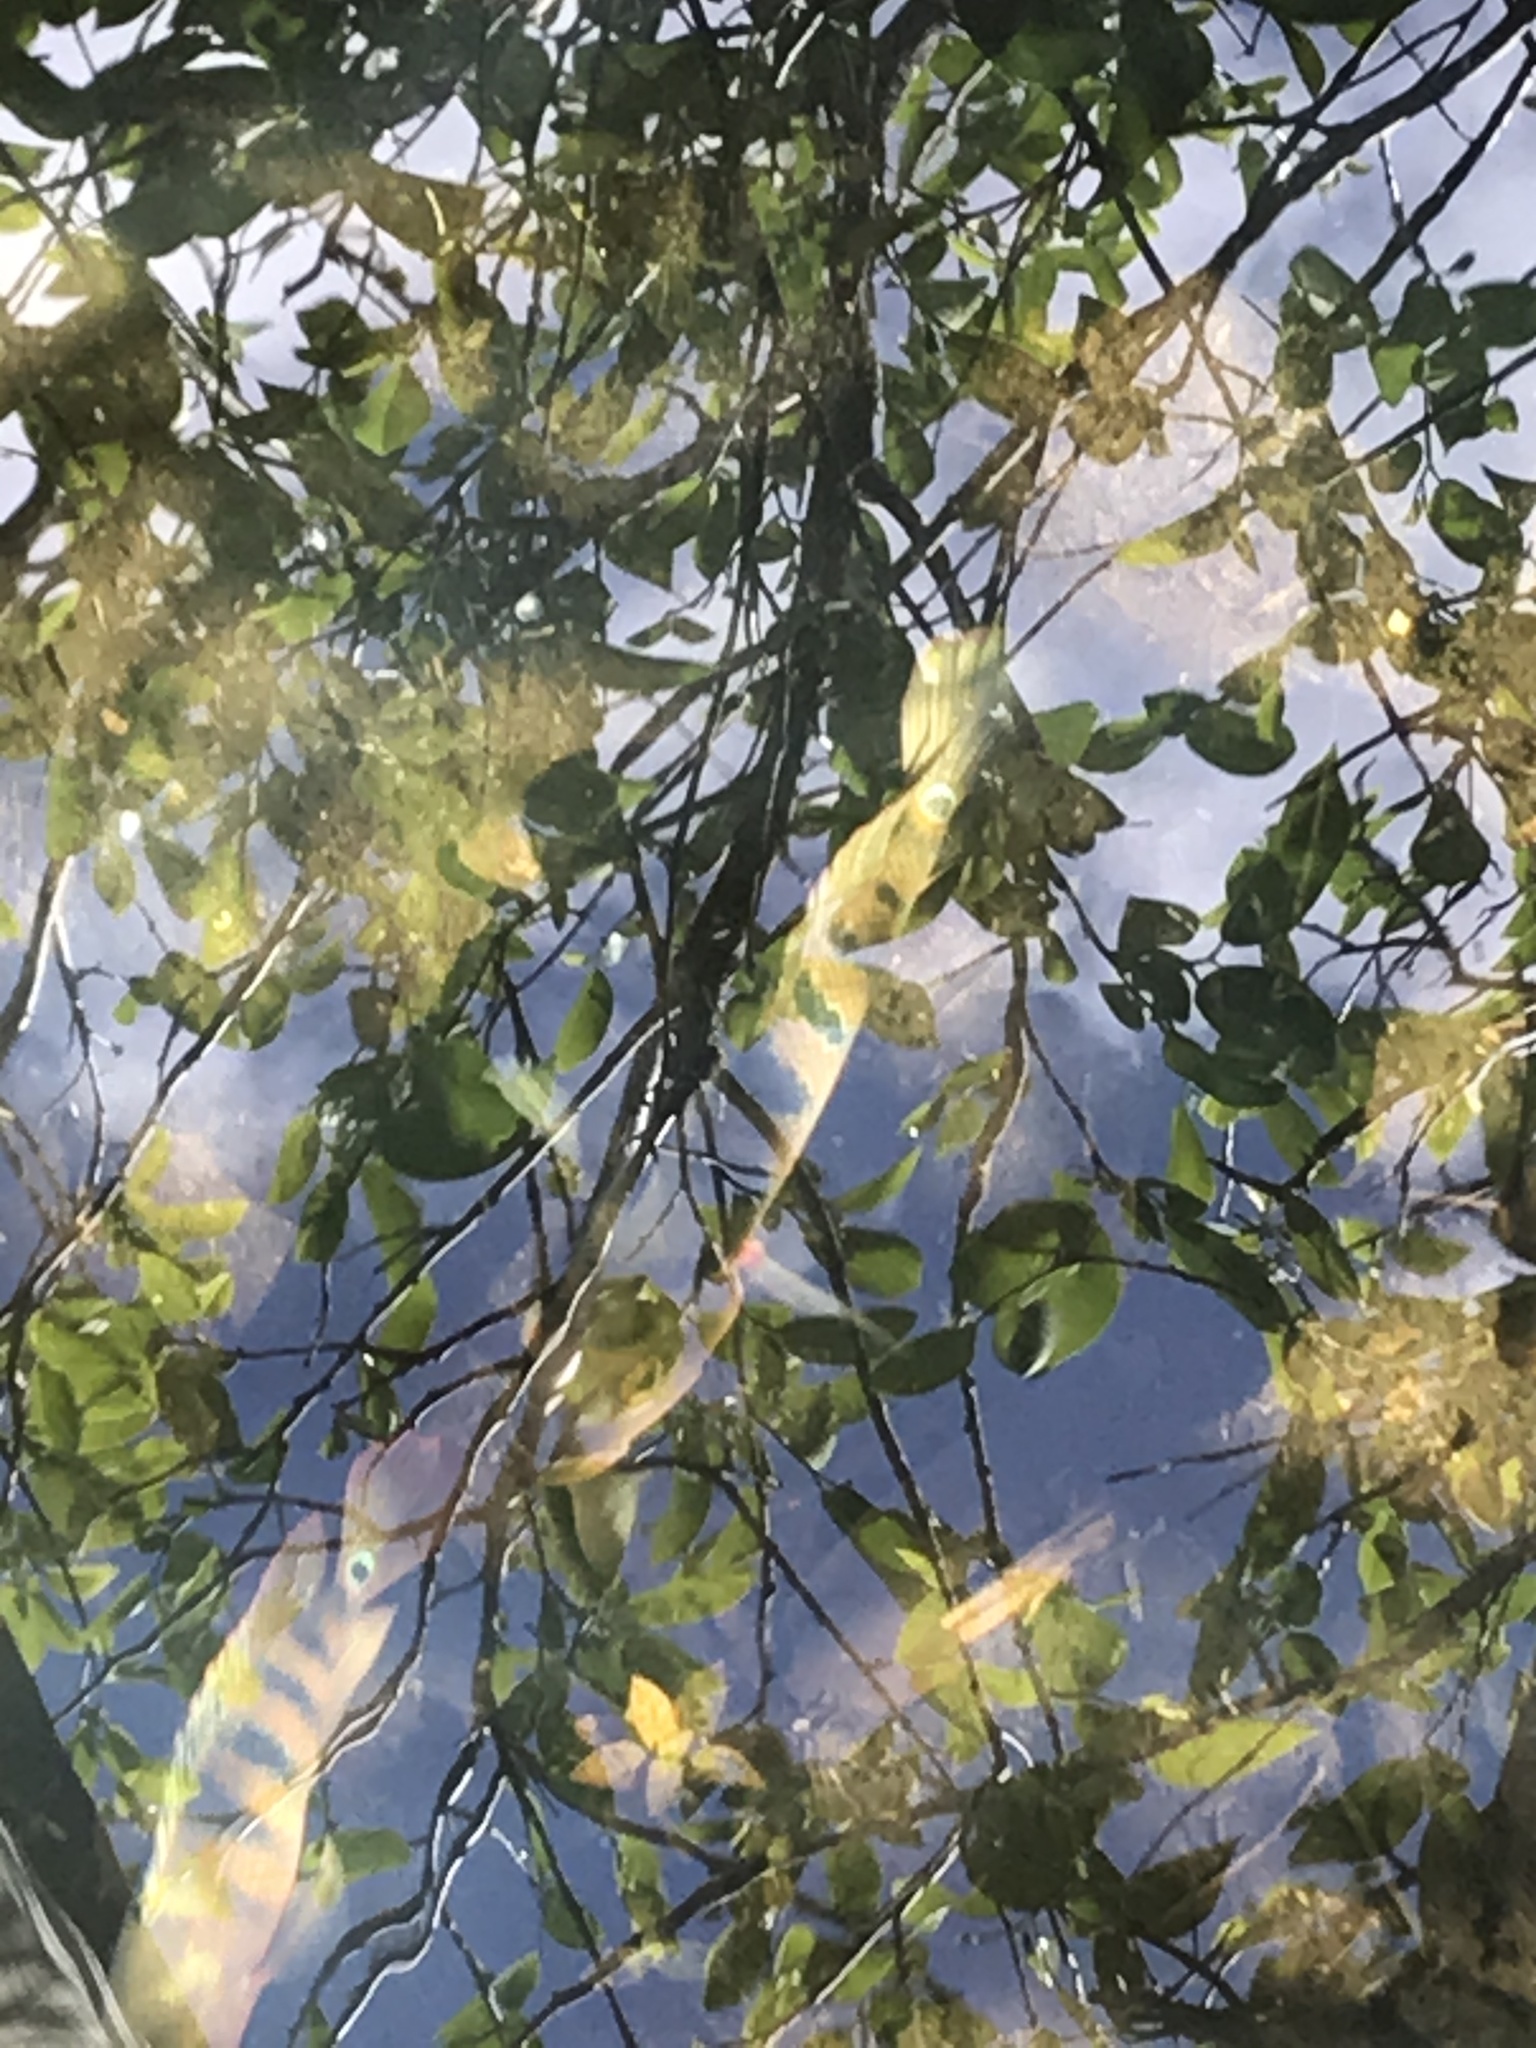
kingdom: Animalia
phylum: Chordata
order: Perciformes
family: Cichlidae
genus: Mayaheros
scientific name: Mayaheros urophthalmus
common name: Mayan cichlid
